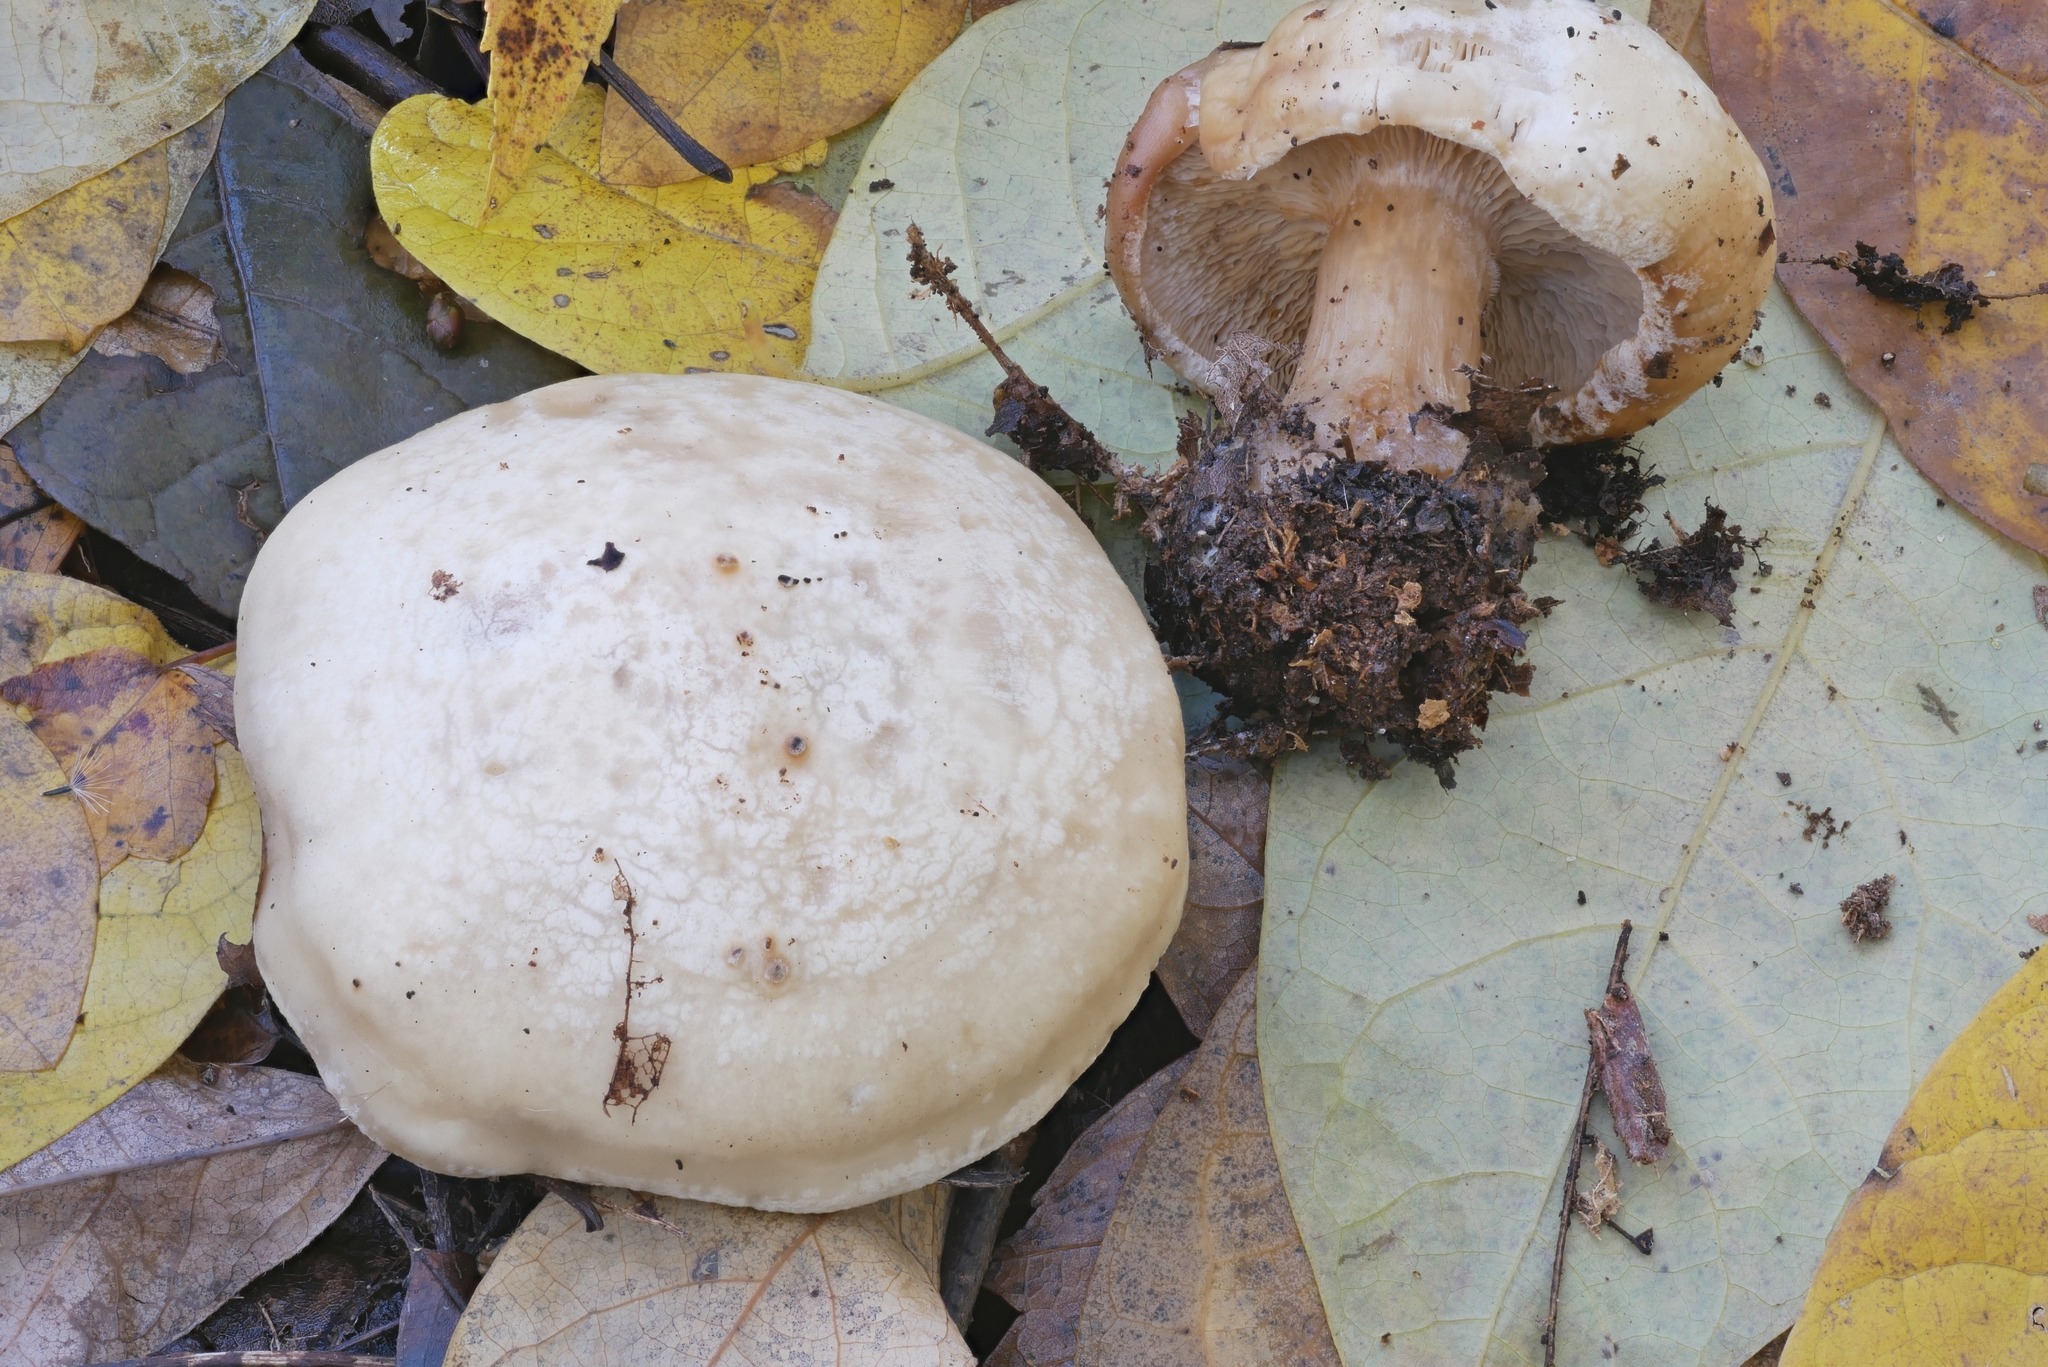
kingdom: Fungi
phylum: Basidiomycota
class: Agaricomycetes
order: Agaricales
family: Tricholomataceae
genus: Clitocybe
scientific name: Clitocybe robusta
